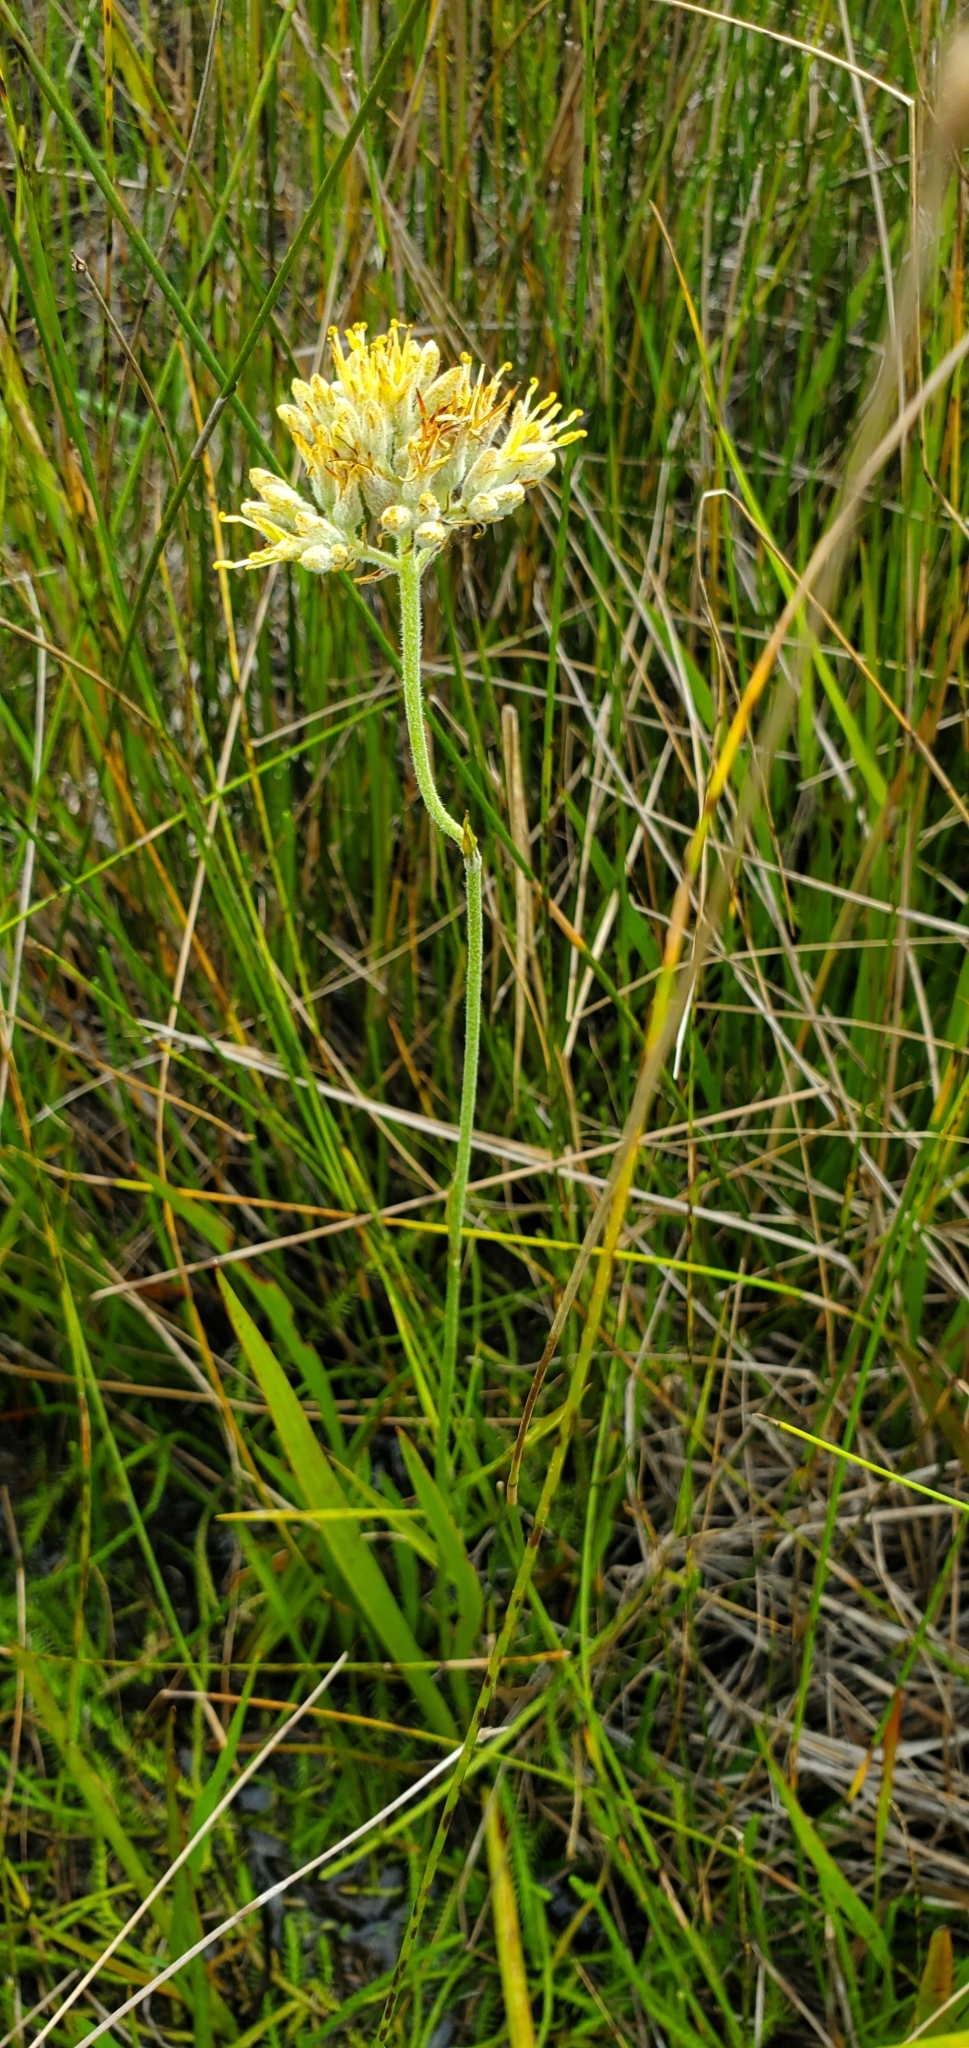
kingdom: Plantae
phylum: Tracheophyta
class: Liliopsida
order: Commelinales
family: Haemodoraceae
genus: Lachnanthes
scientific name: Lachnanthes caroliana
